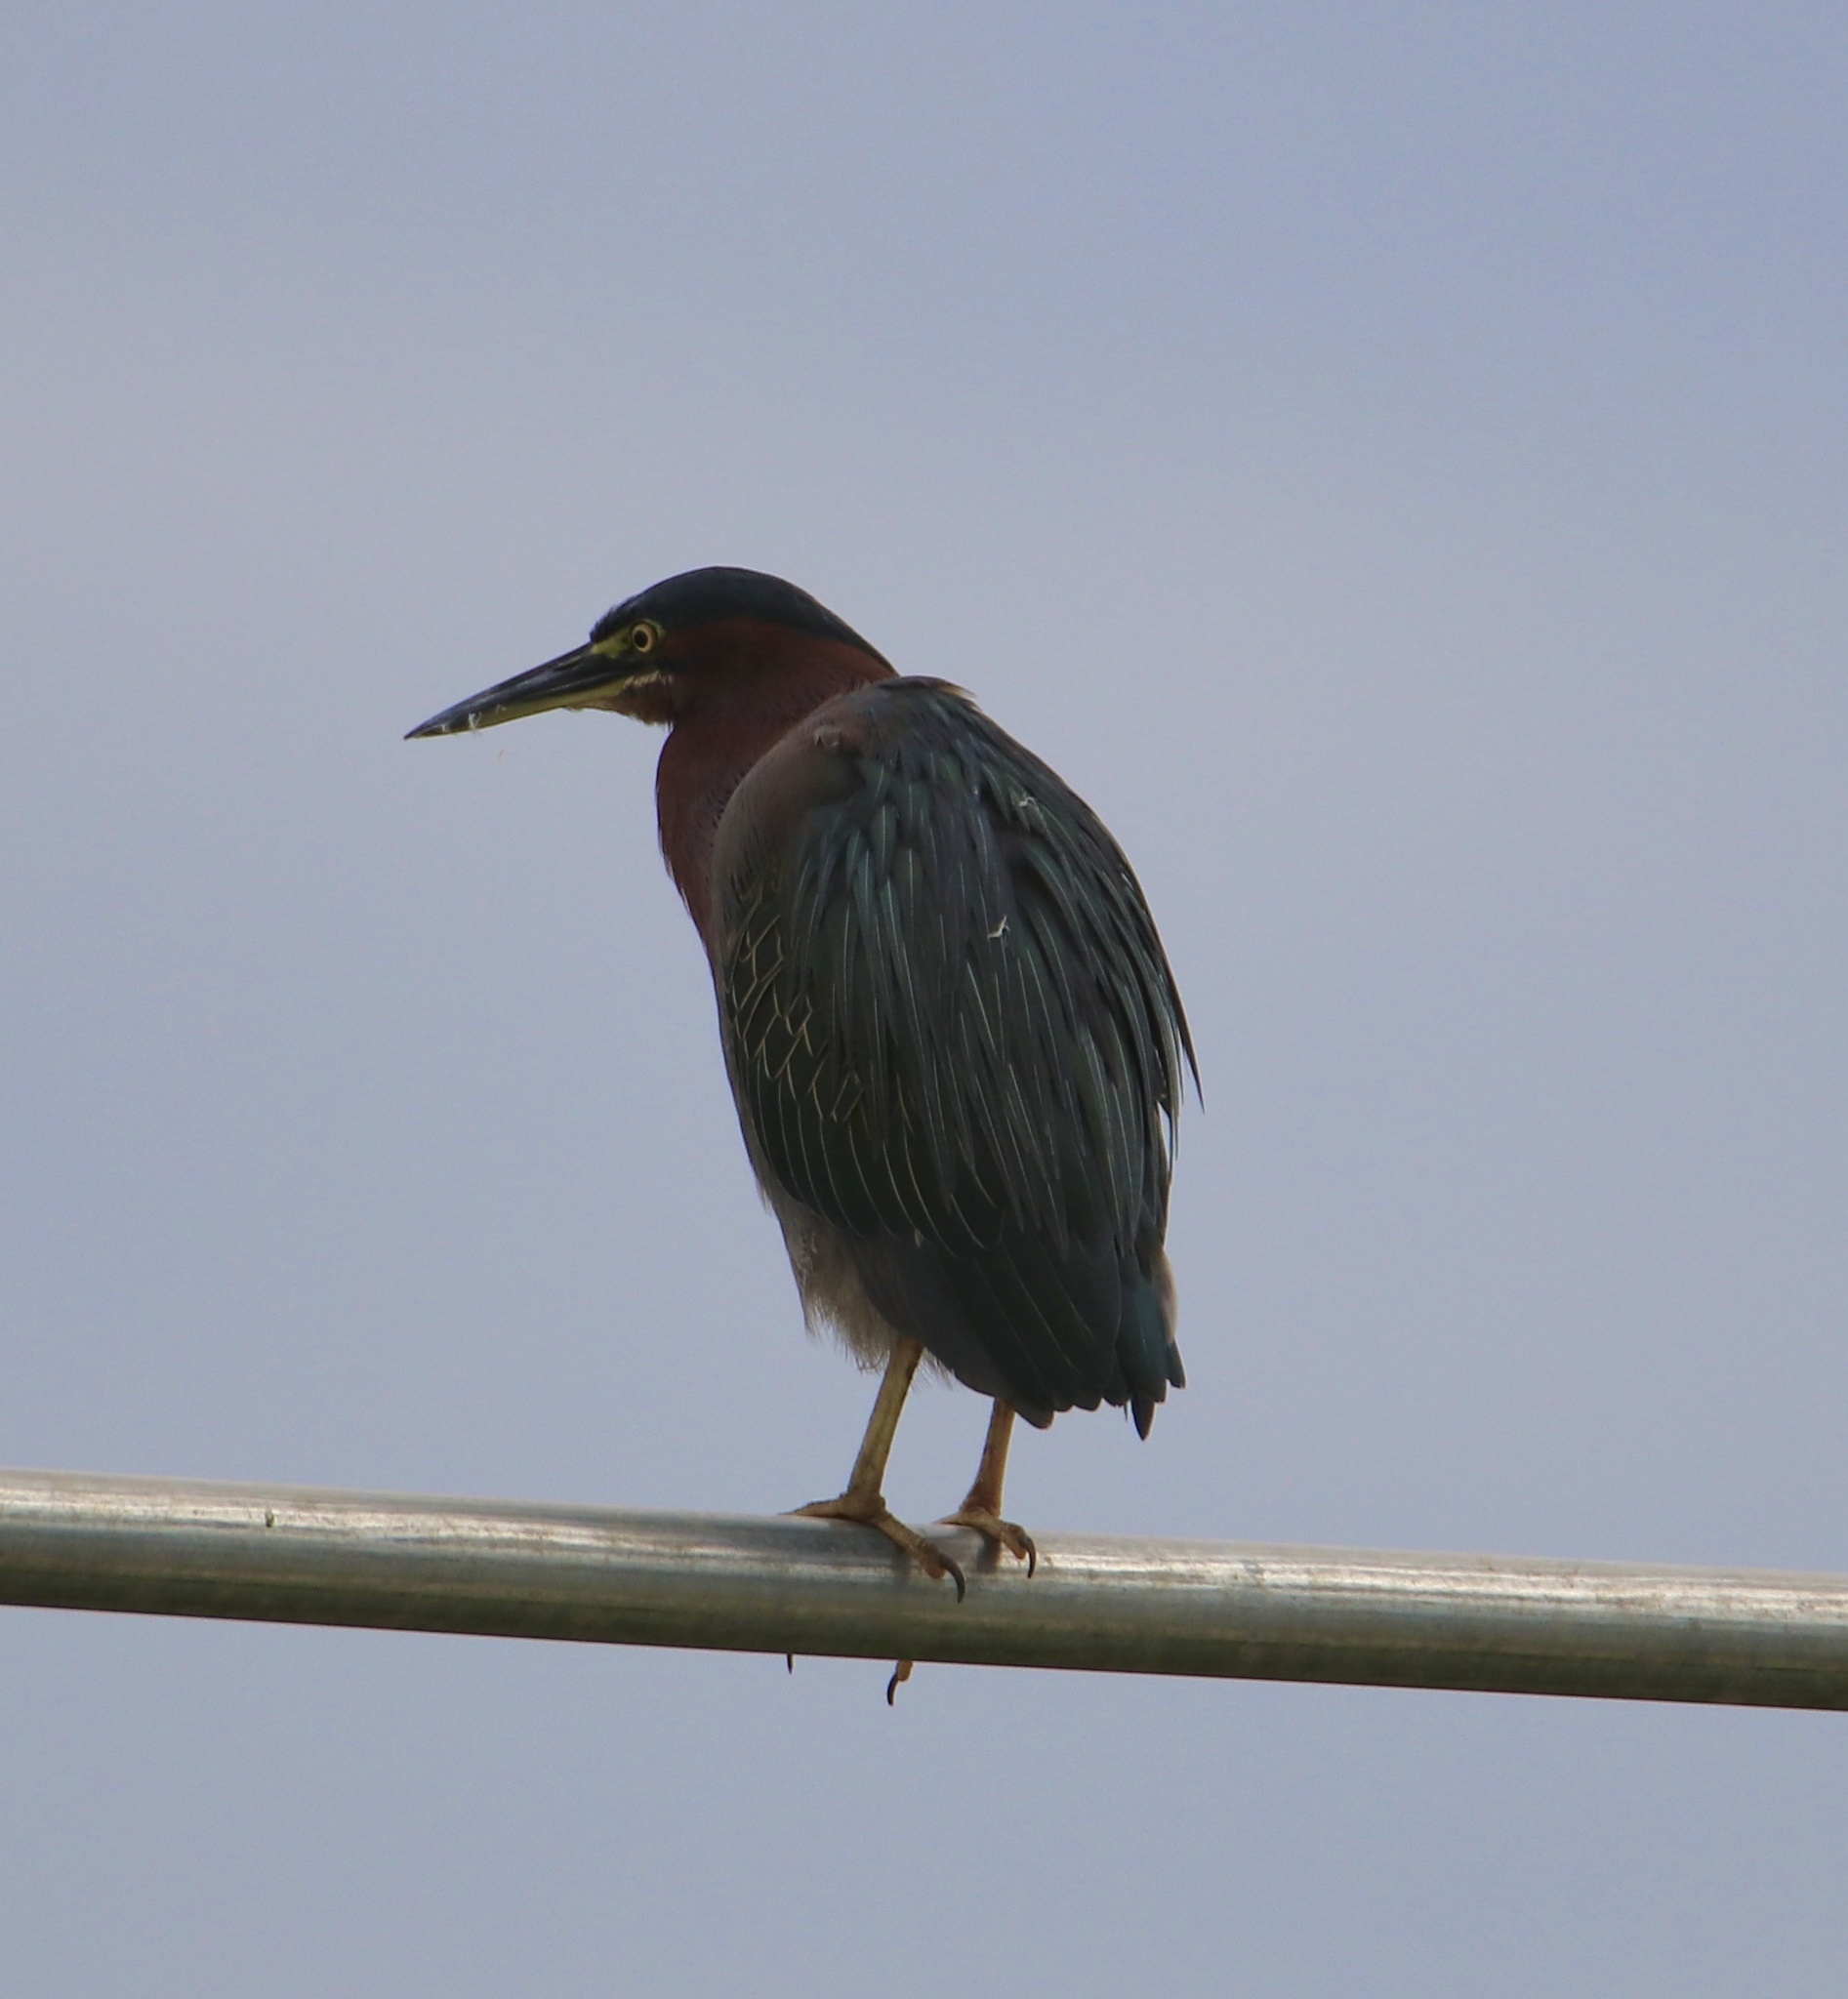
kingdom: Animalia
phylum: Chordata
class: Aves
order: Pelecaniformes
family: Ardeidae
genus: Butorides
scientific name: Butorides virescens
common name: Green heron
